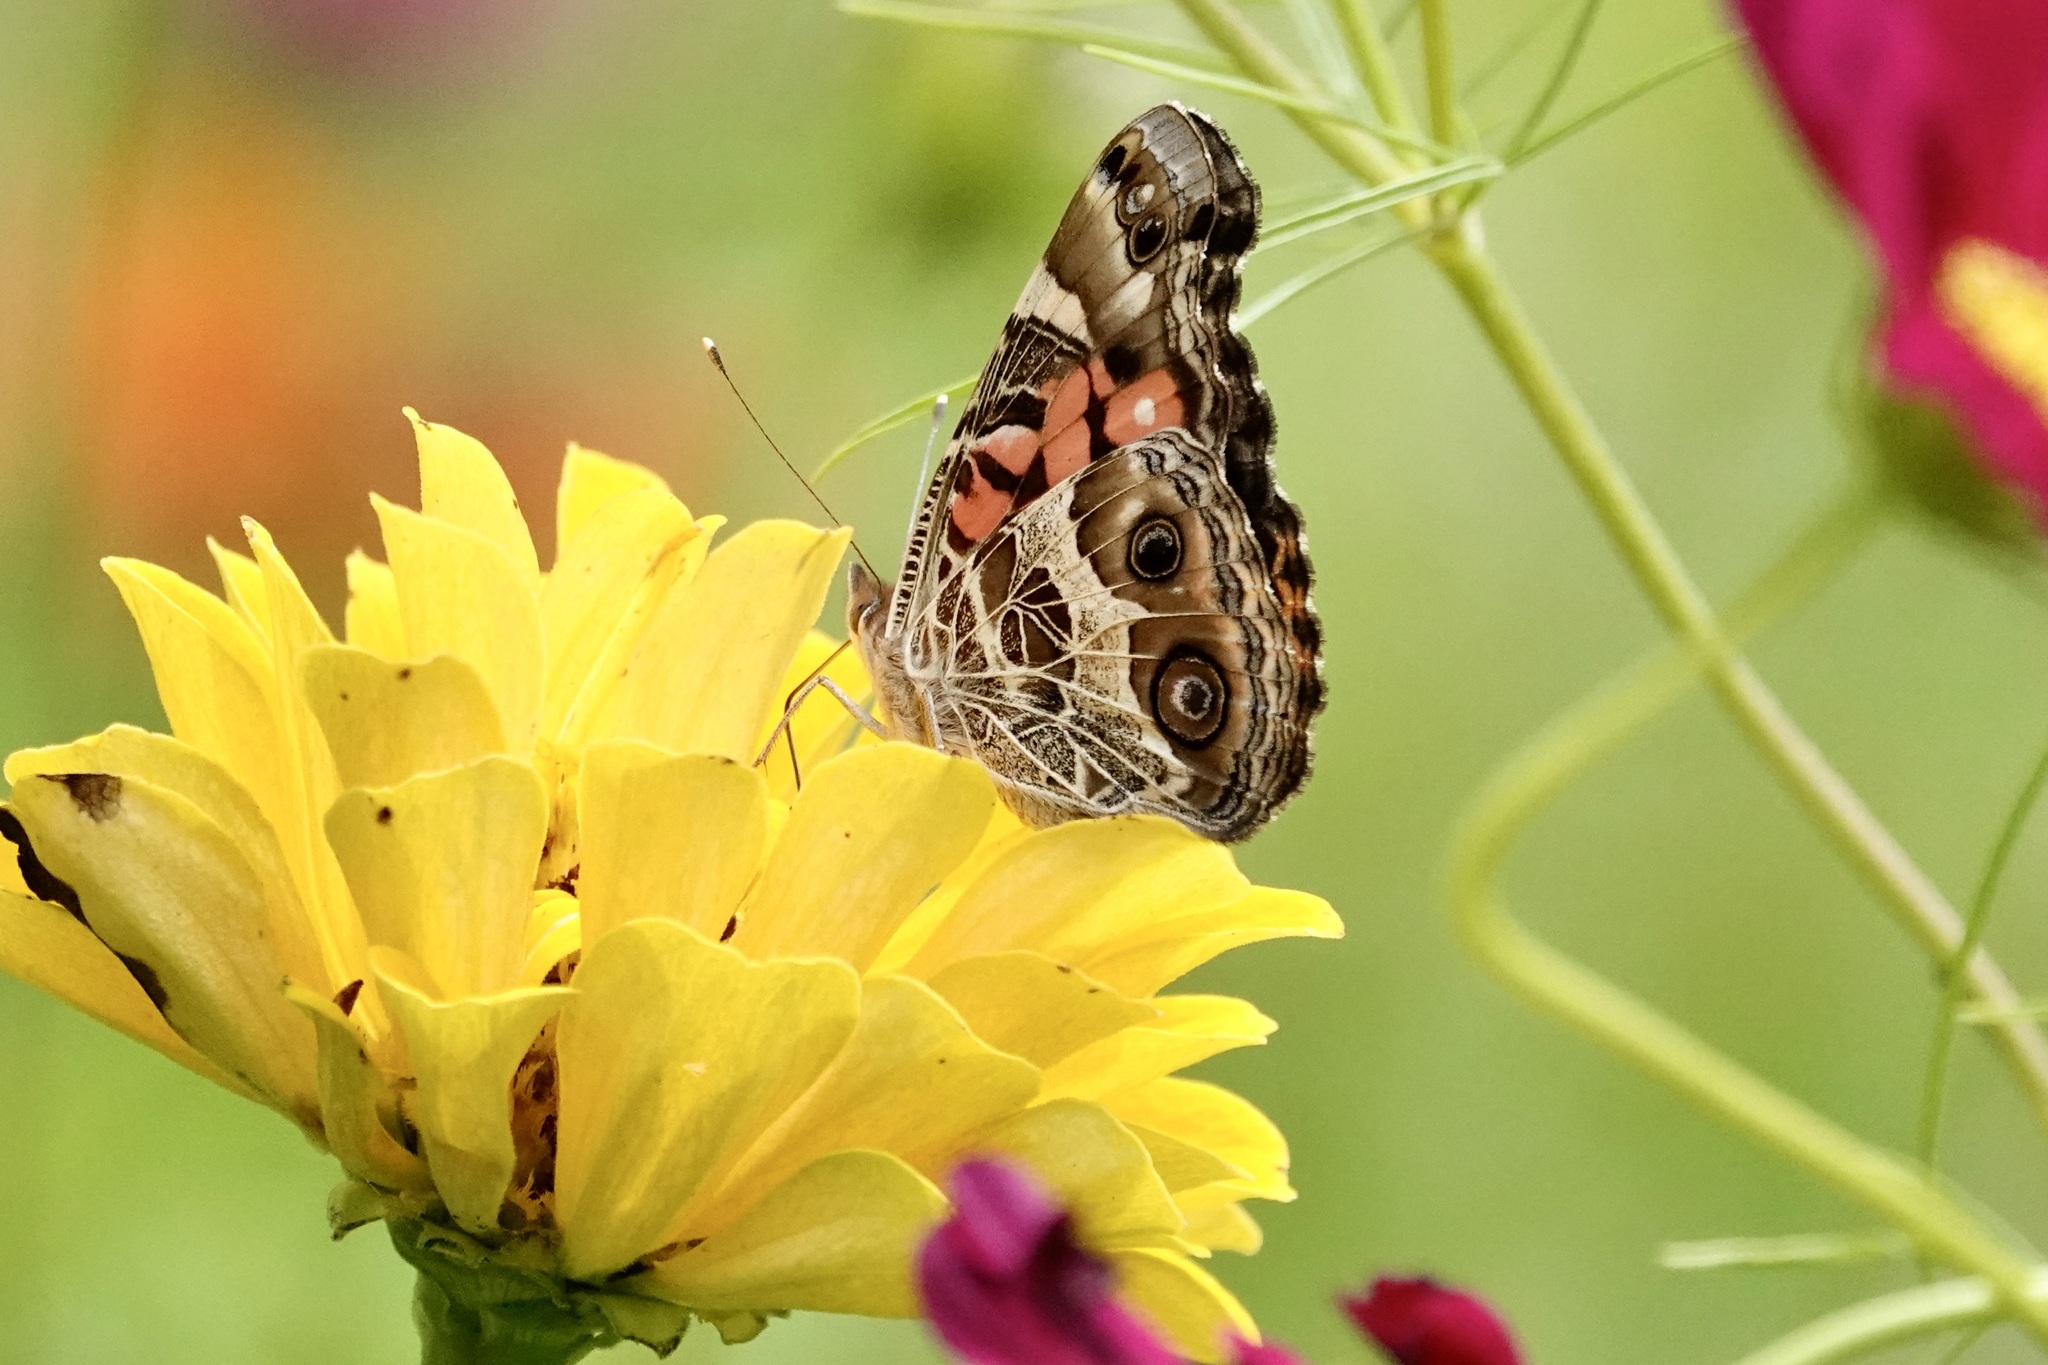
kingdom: Animalia
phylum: Arthropoda
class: Insecta
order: Lepidoptera
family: Nymphalidae
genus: Vanessa
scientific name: Vanessa virginiensis
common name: American lady
